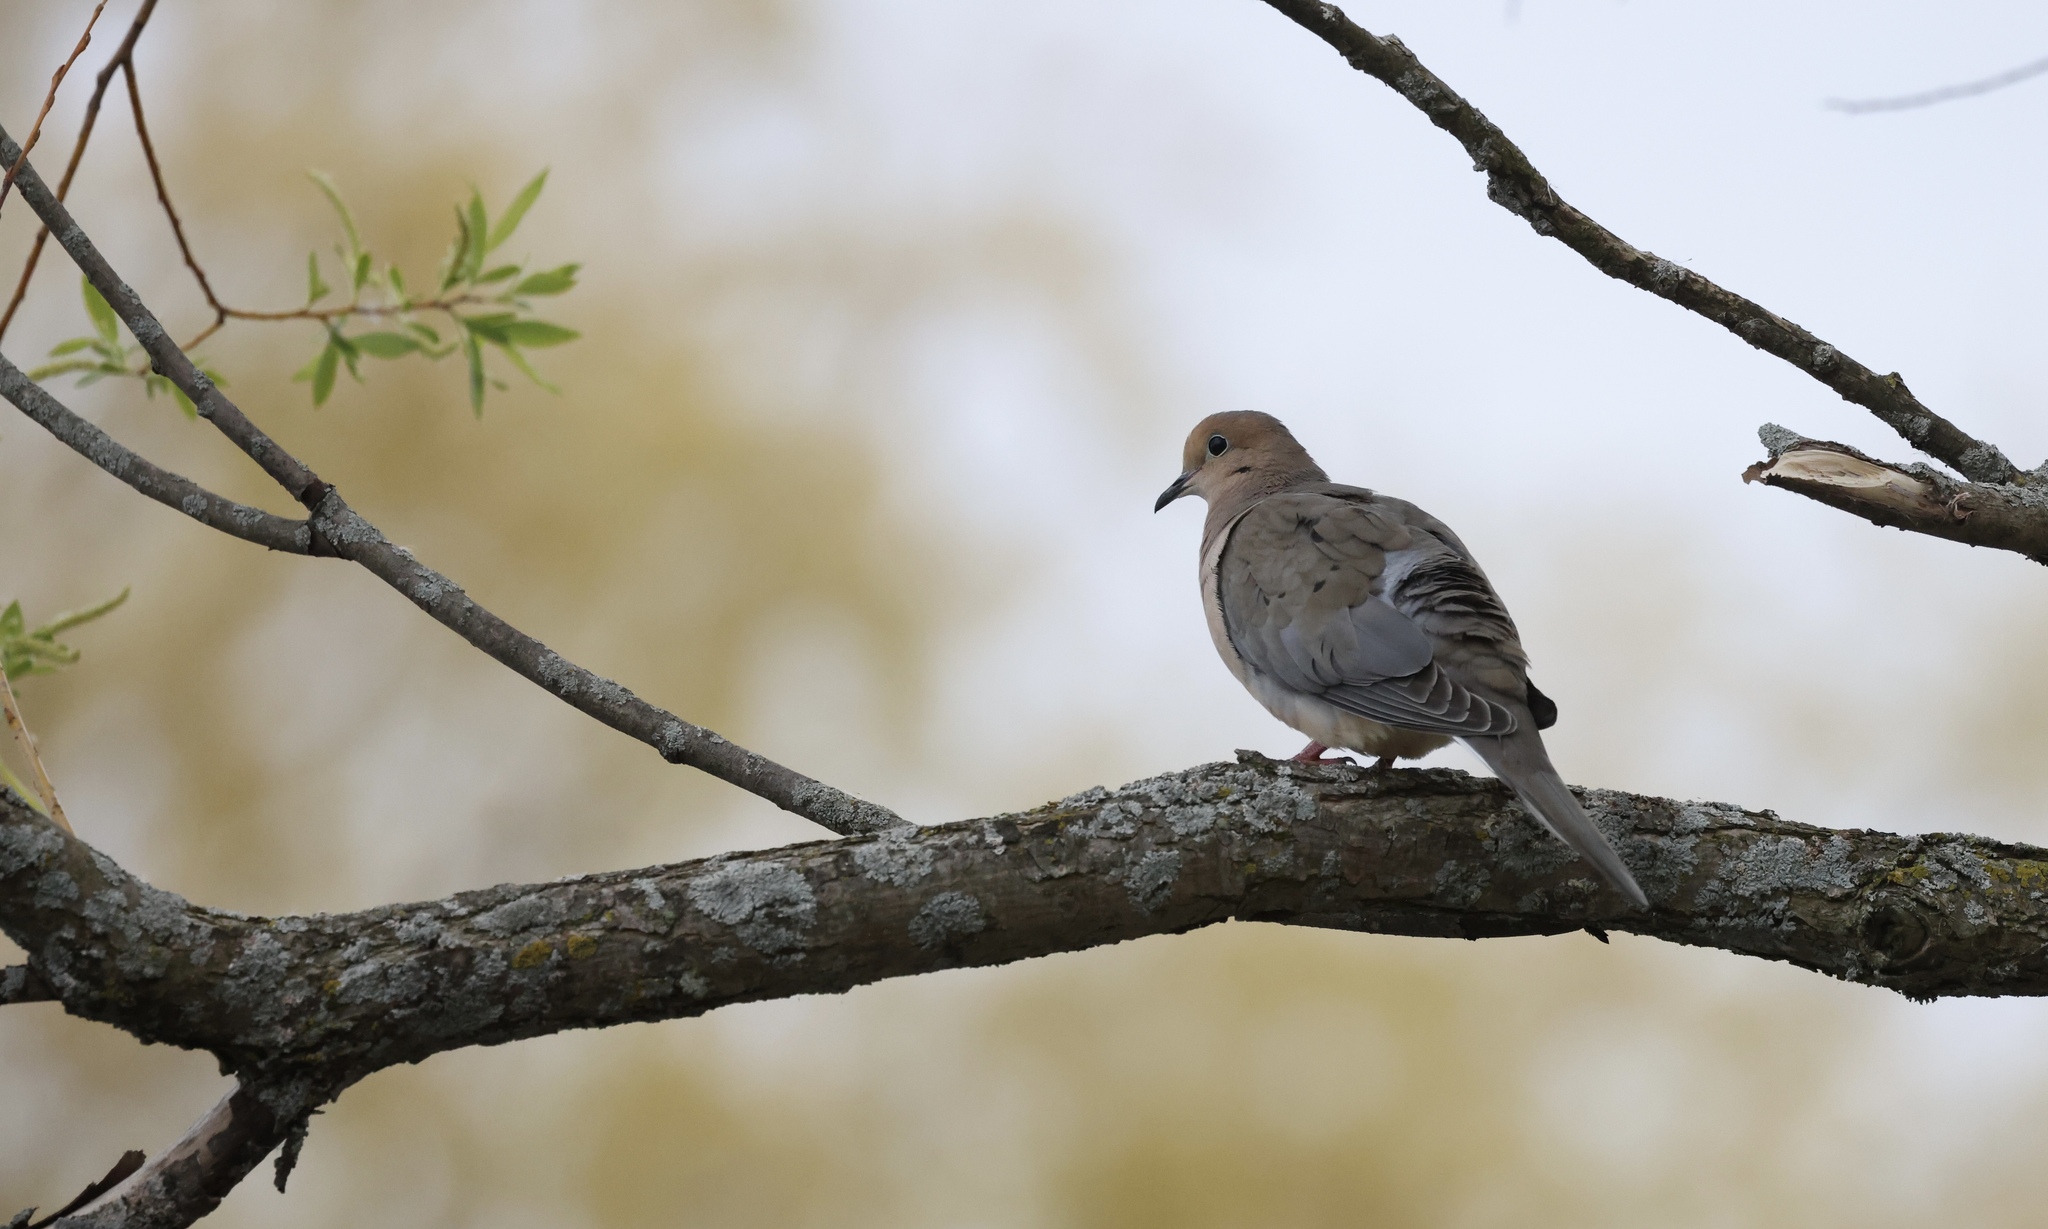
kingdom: Animalia
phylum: Chordata
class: Aves
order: Columbiformes
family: Columbidae
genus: Zenaida
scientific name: Zenaida macroura
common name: Mourning dove
